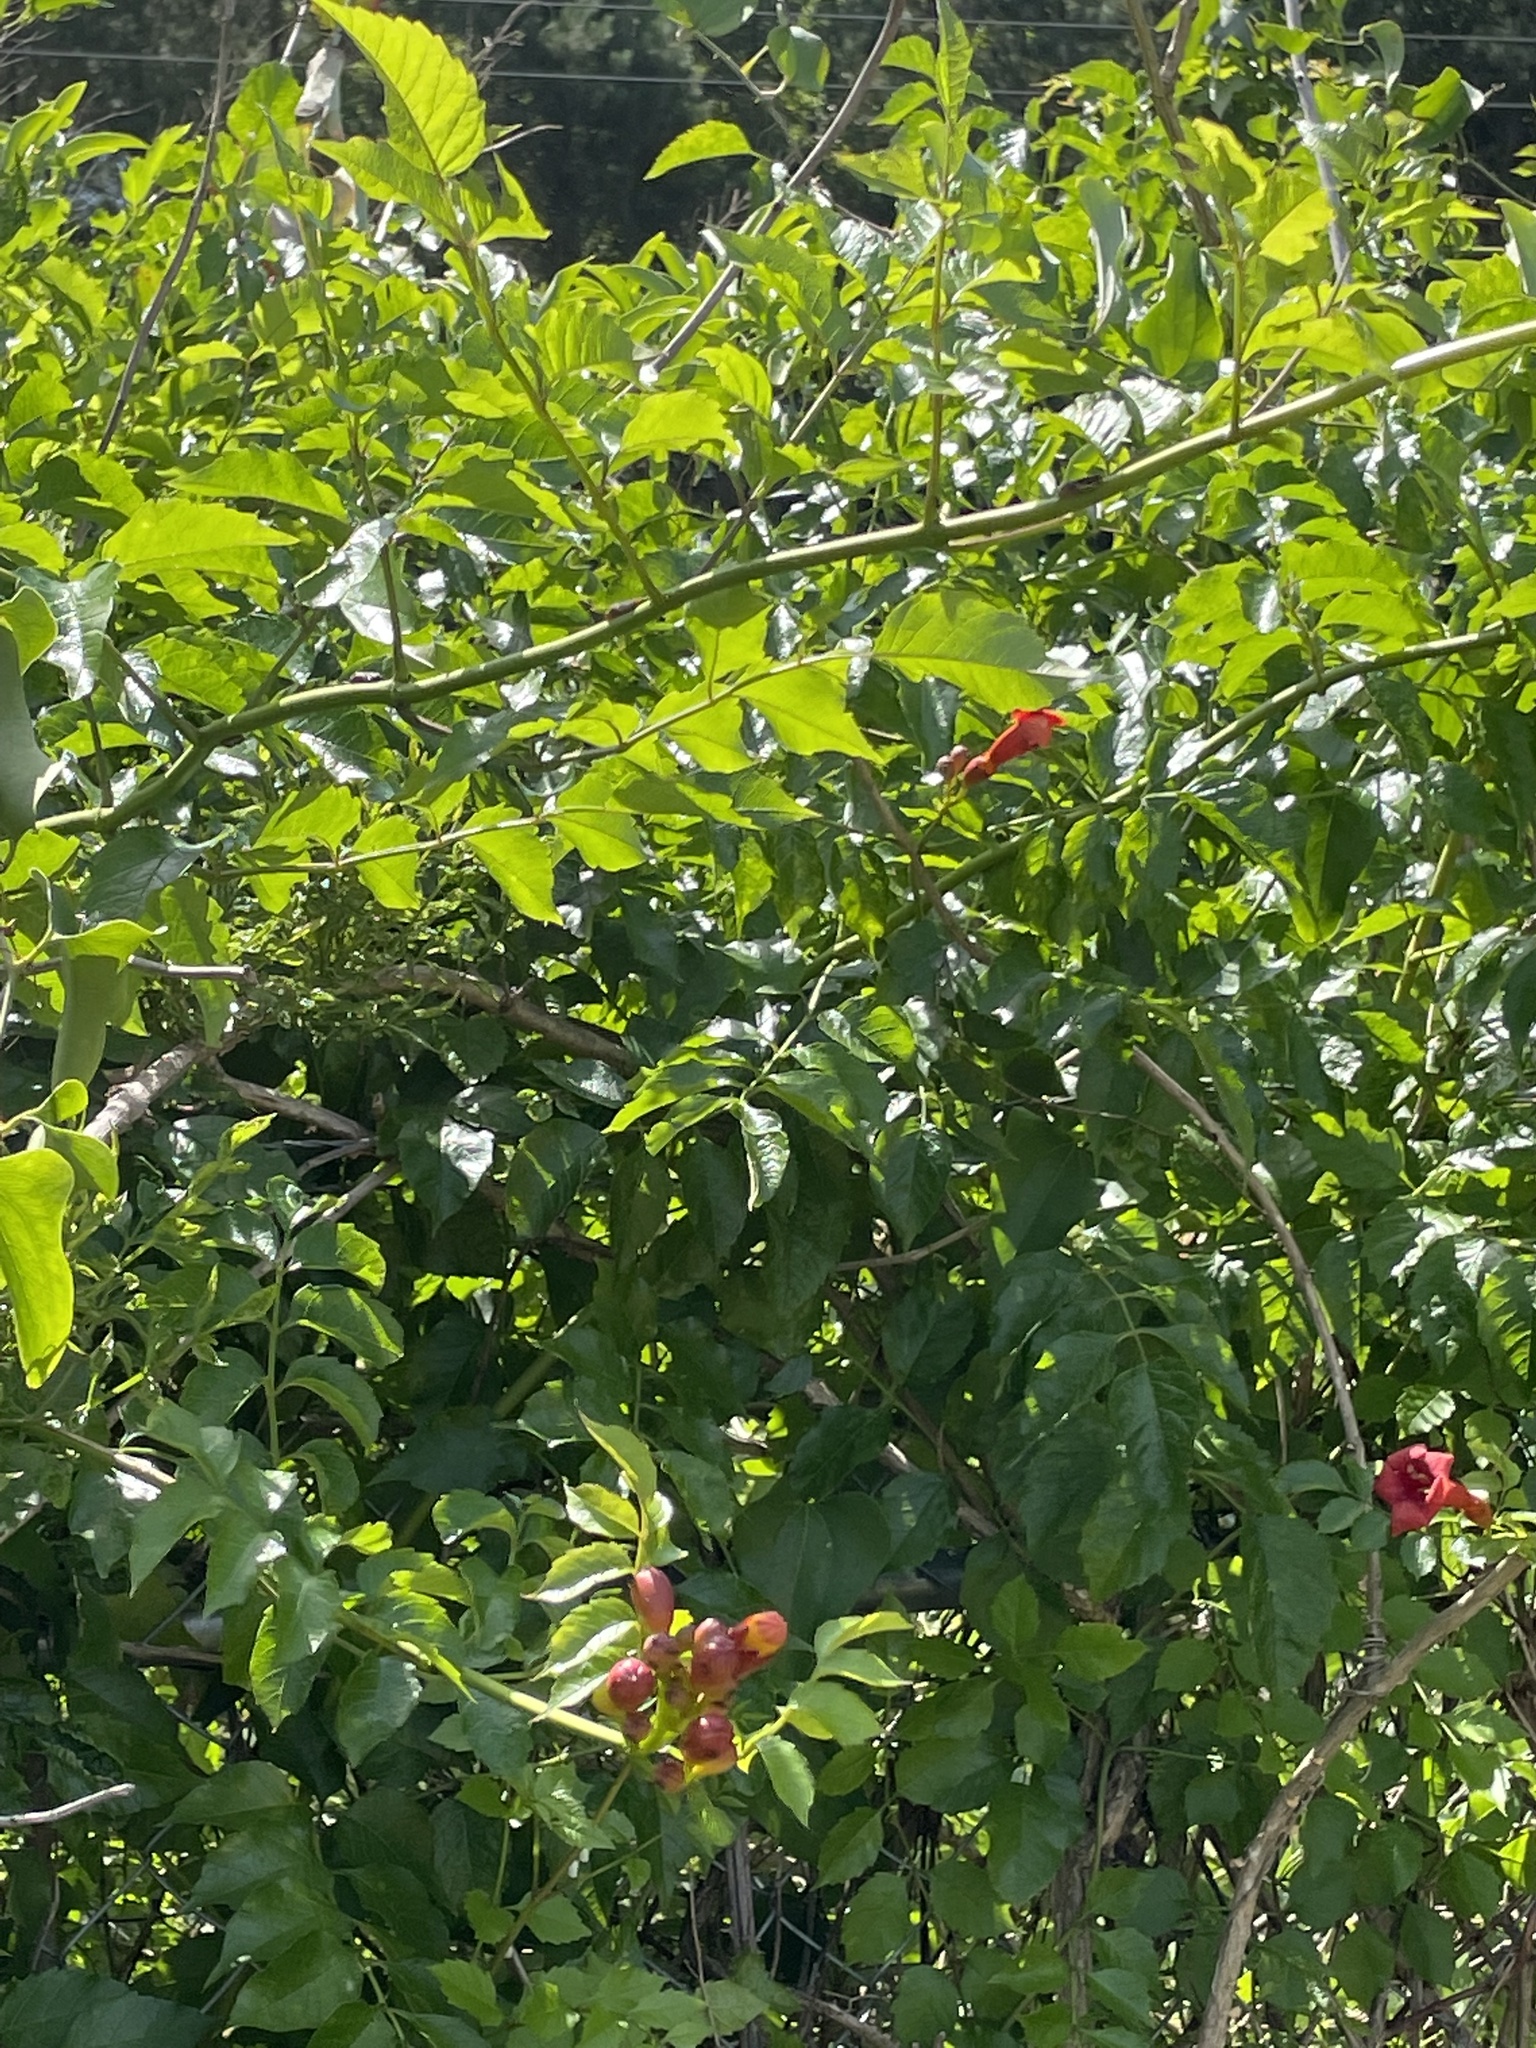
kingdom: Plantae
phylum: Tracheophyta
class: Magnoliopsida
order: Lamiales
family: Bignoniaceae
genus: Campsis
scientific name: Campsis radicans
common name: Trumpet-creeper
